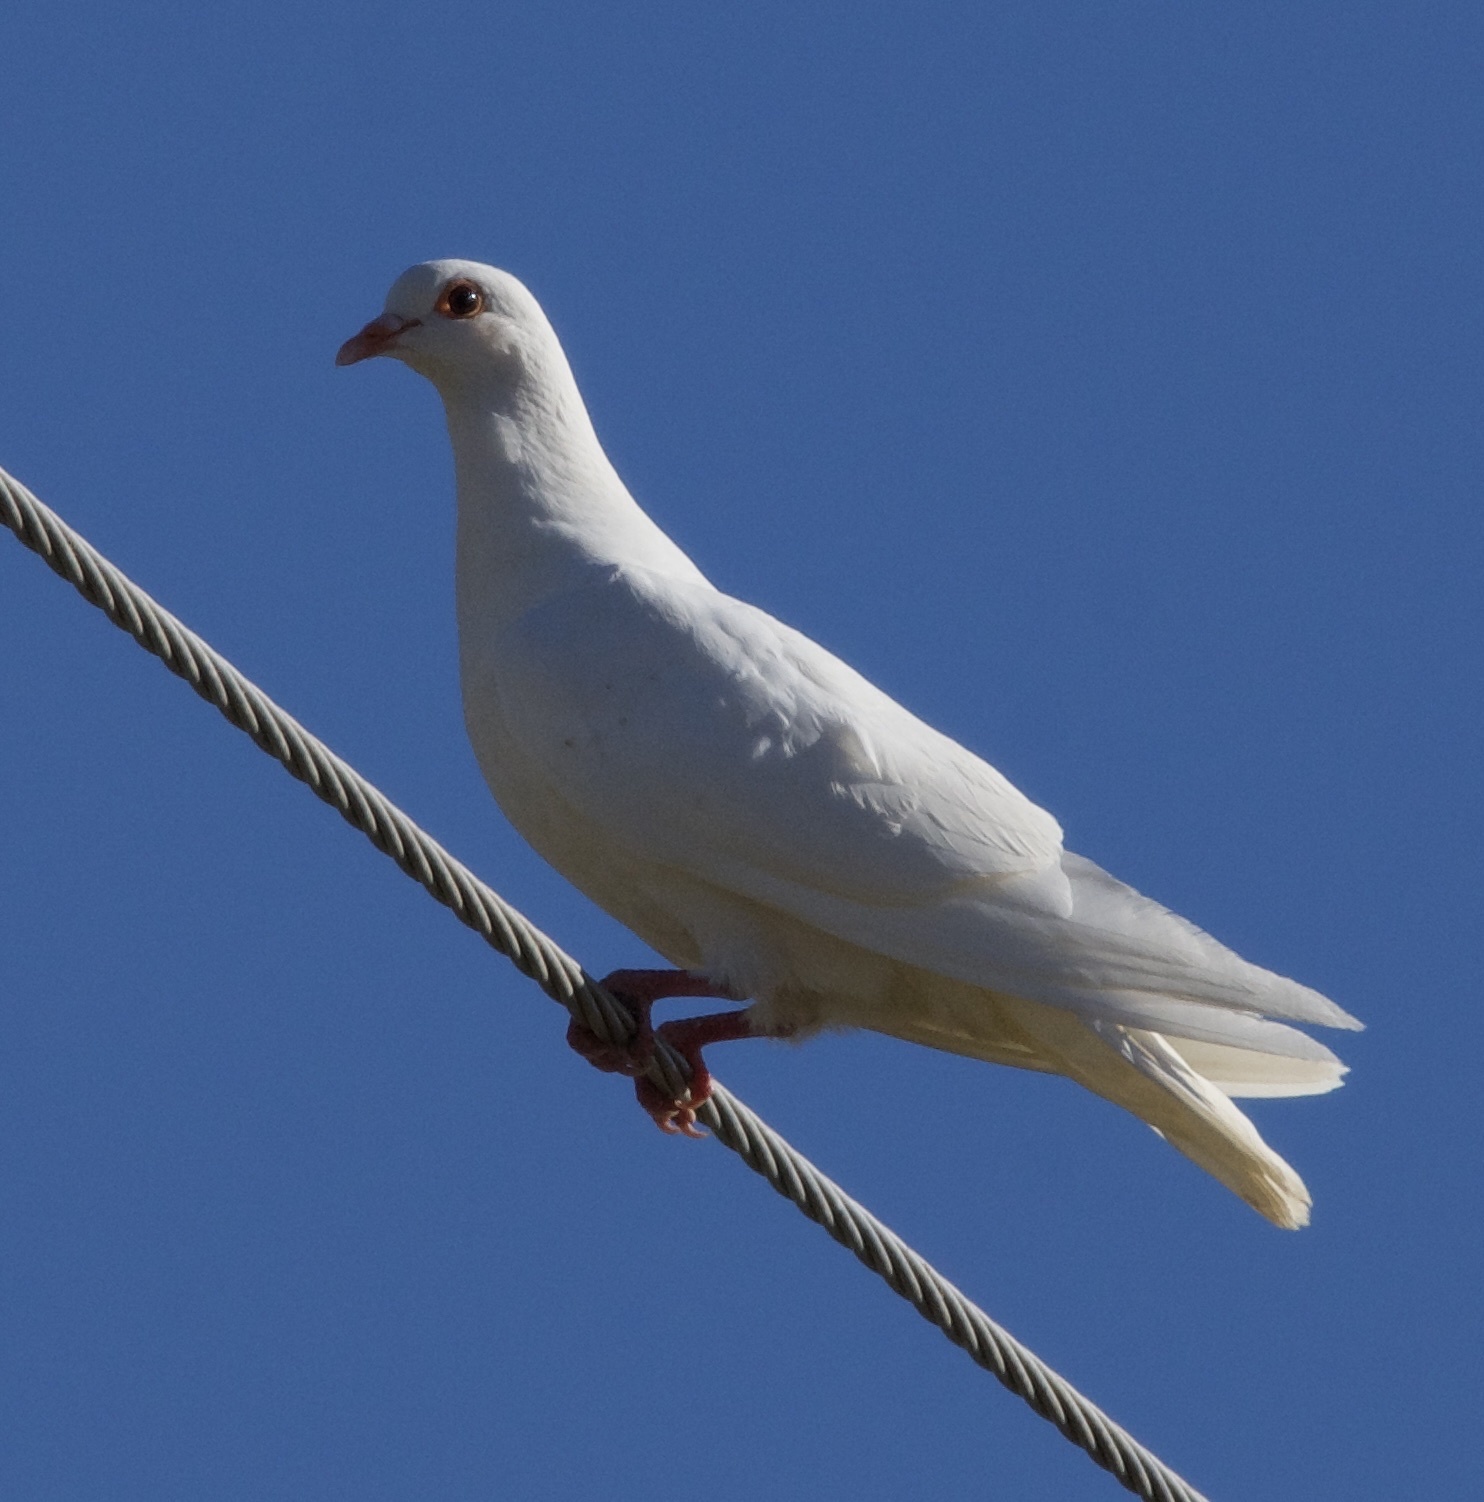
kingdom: Animalia
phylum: Chordata
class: Aves
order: Columbiformes
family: Columbidae
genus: Columba
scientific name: Columba livia
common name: Rock pigeon
